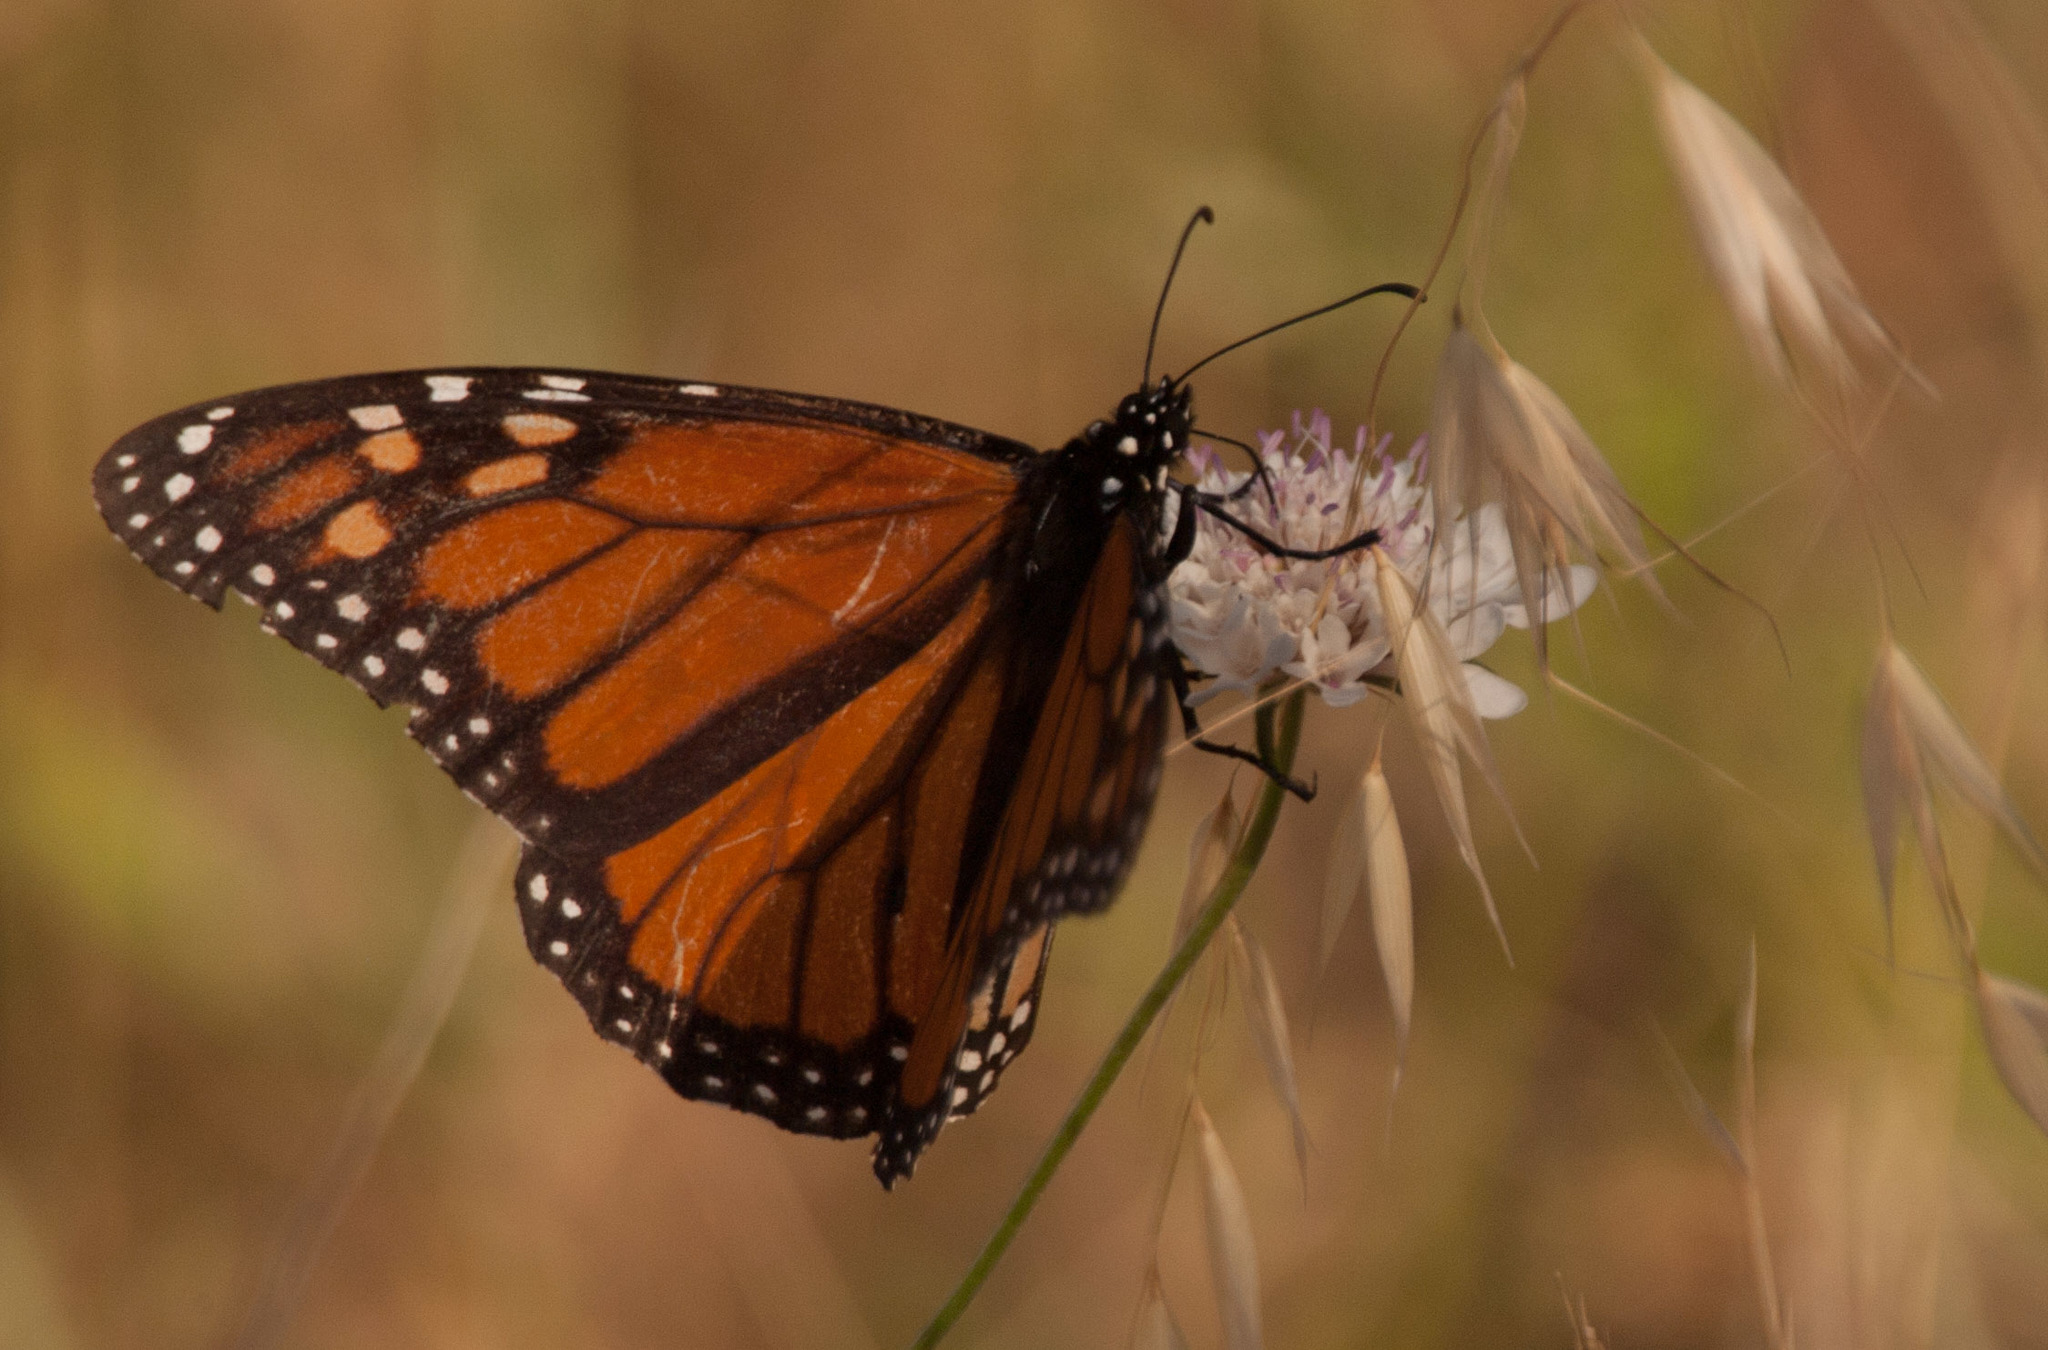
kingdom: Animalia
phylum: Arthropoda
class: Insecta
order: Lepidoptera
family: Nymphalidae
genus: Danaus
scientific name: Danaus plexippus
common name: Monarch
